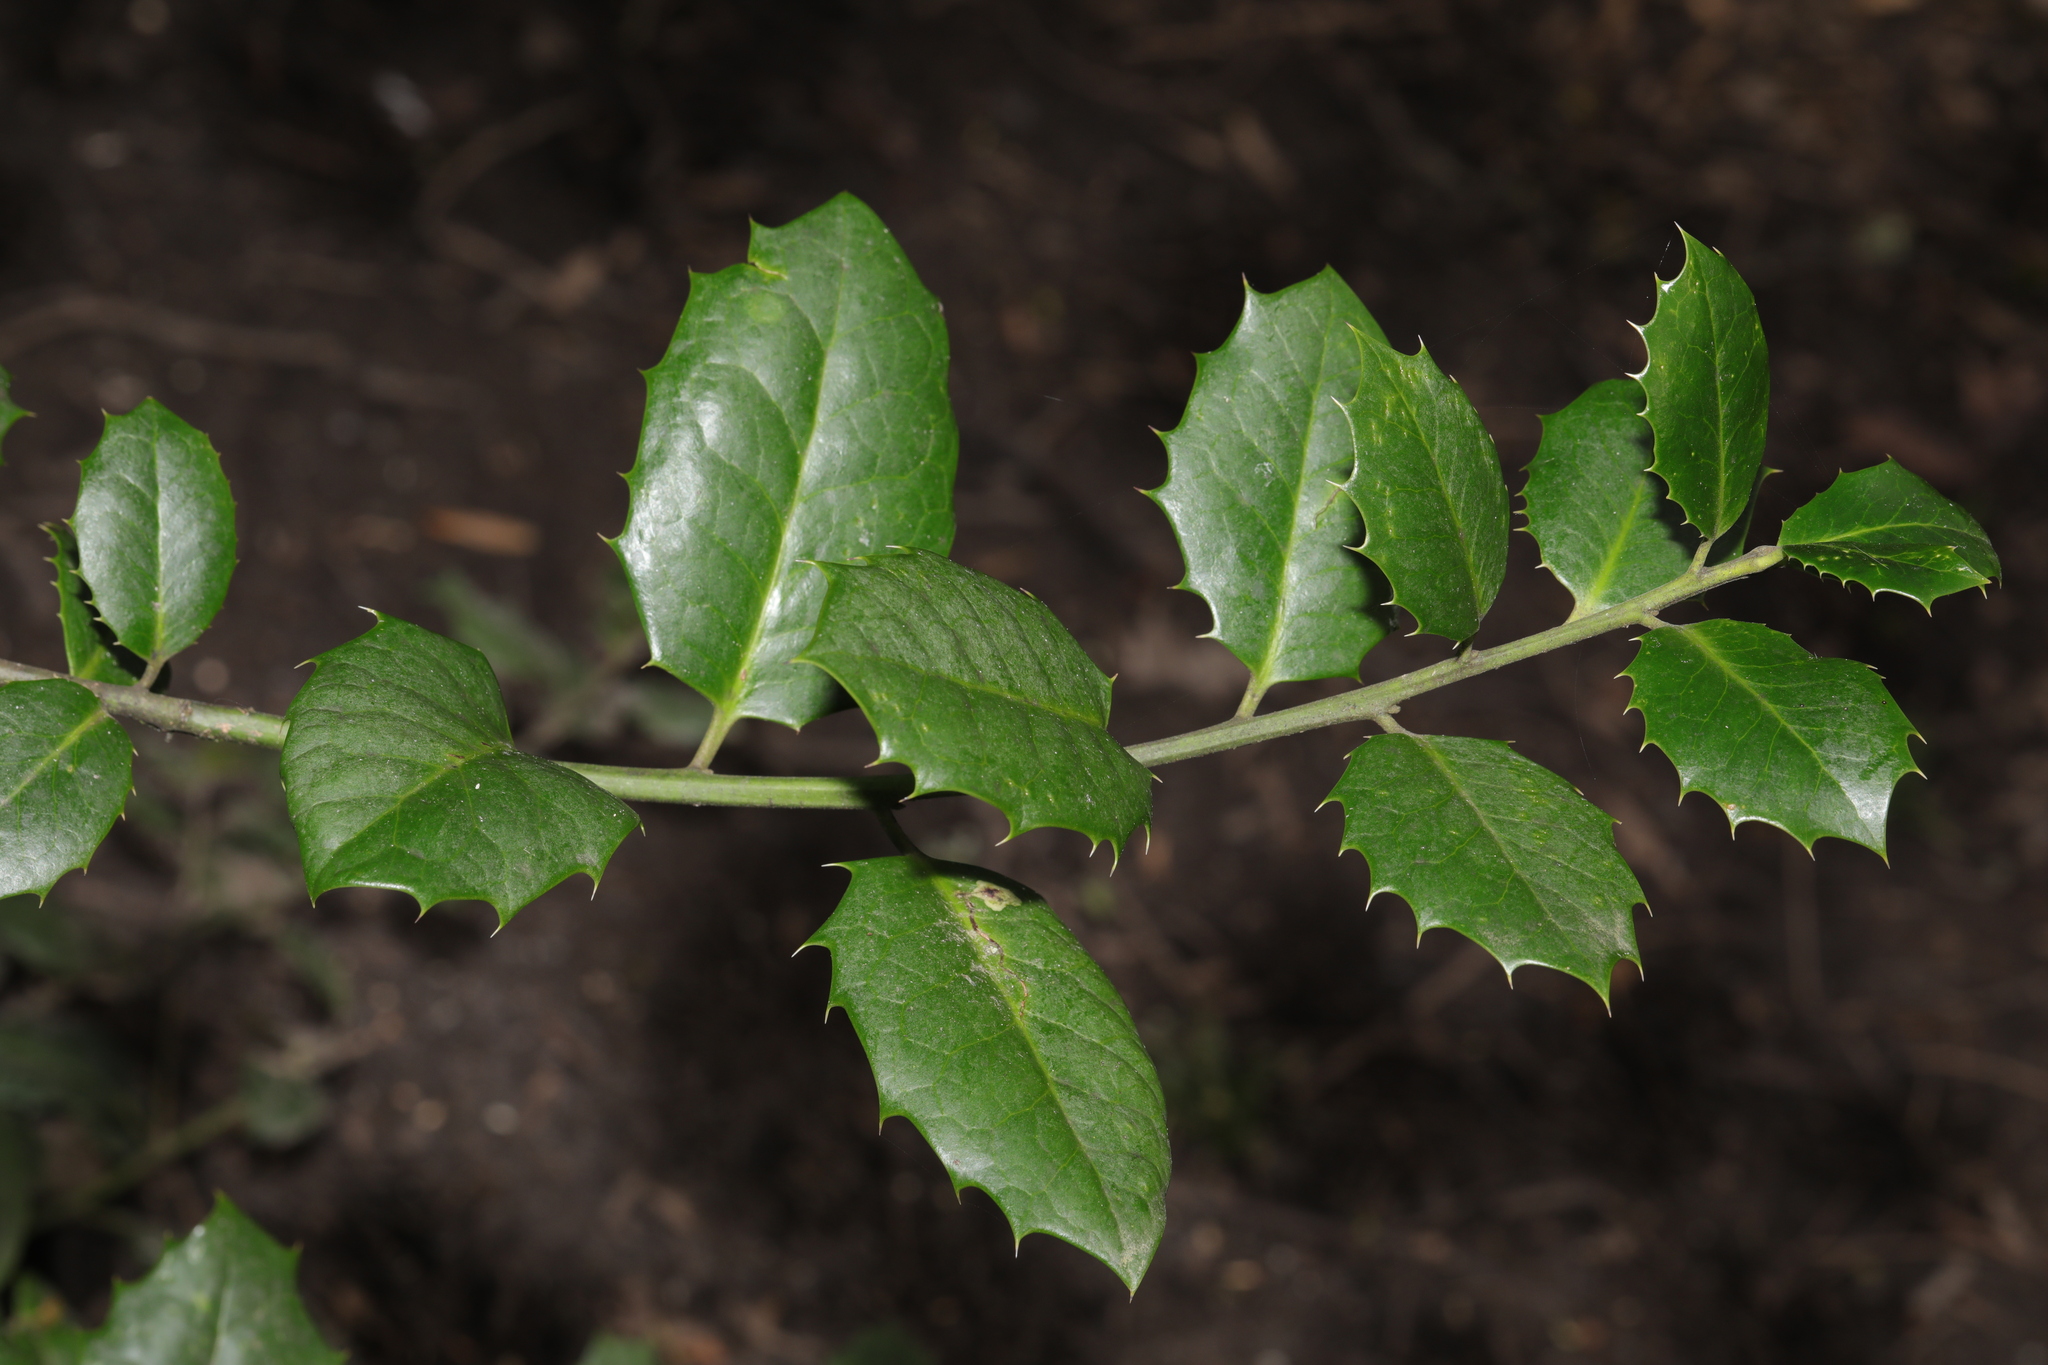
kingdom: Plantae
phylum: Tracheophyta
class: Magnoliopsida
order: Aquifoliales
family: Aquifoliaceae
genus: Ilex
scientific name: Ilex meserveae
